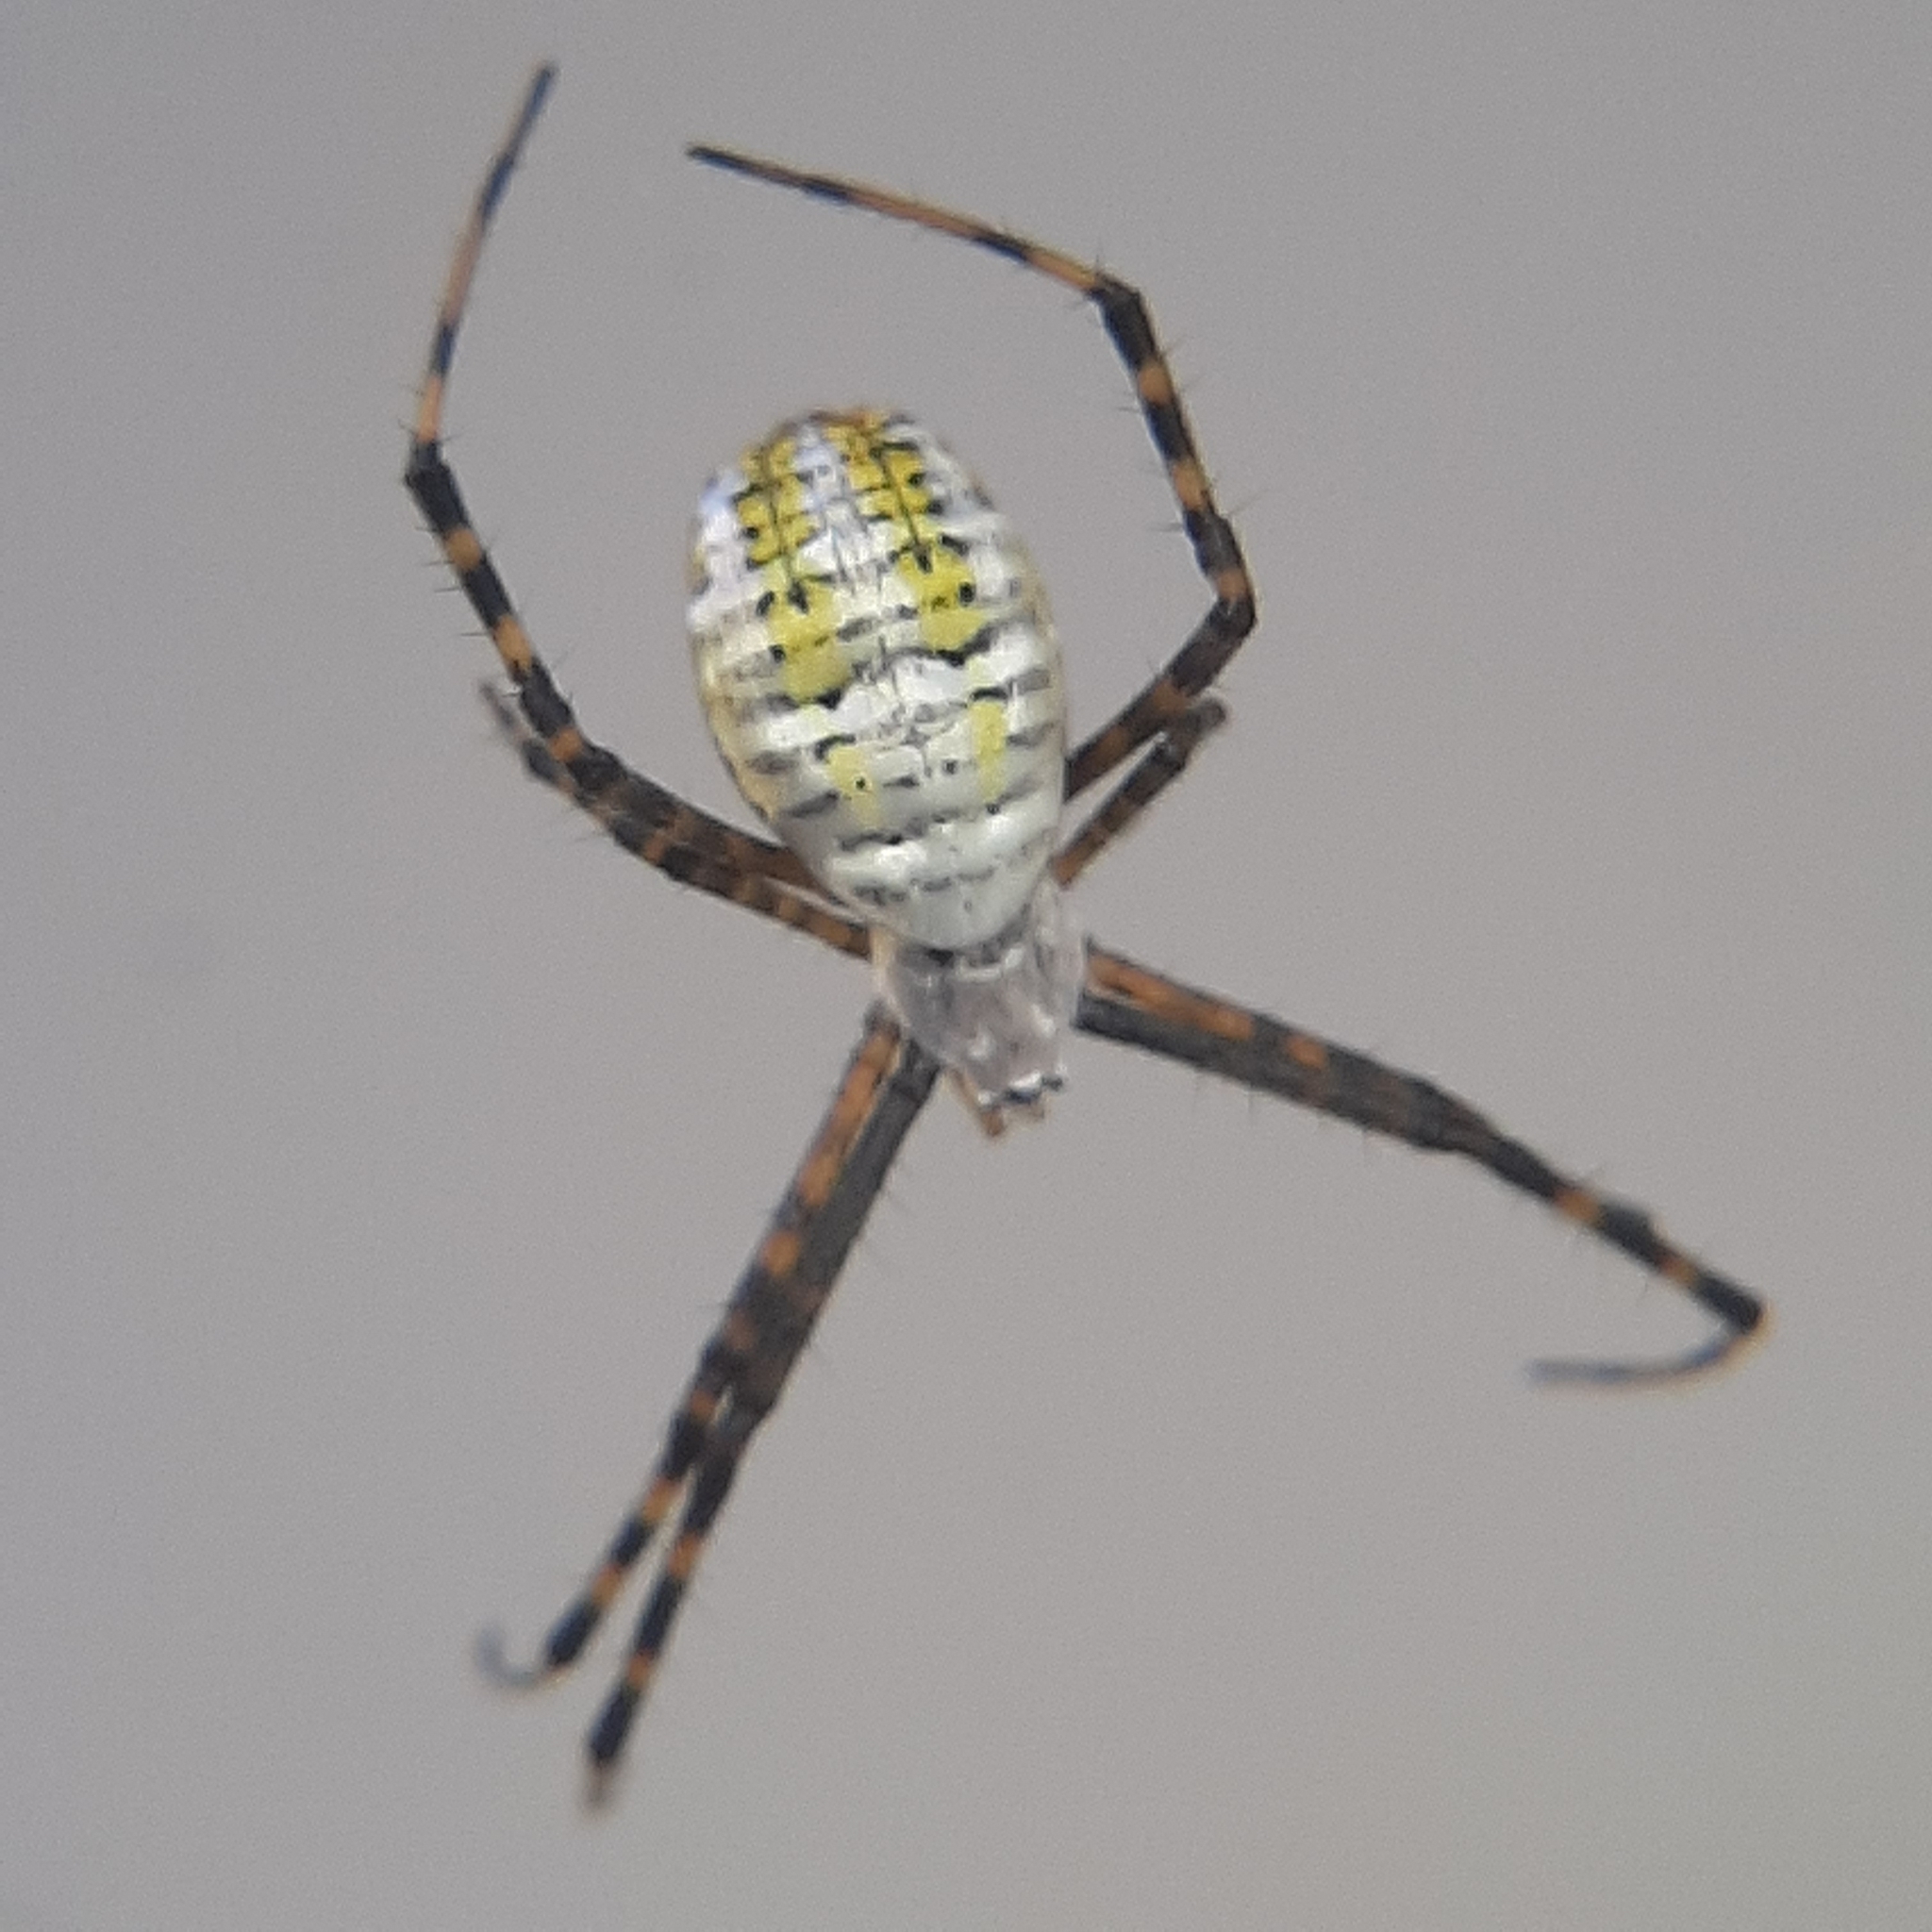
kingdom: Animalia
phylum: Arthropoda
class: Arachnida
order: Araneae
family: Araneidae
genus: Argiope
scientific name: Argiope trifasciata
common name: Banded garden spider
